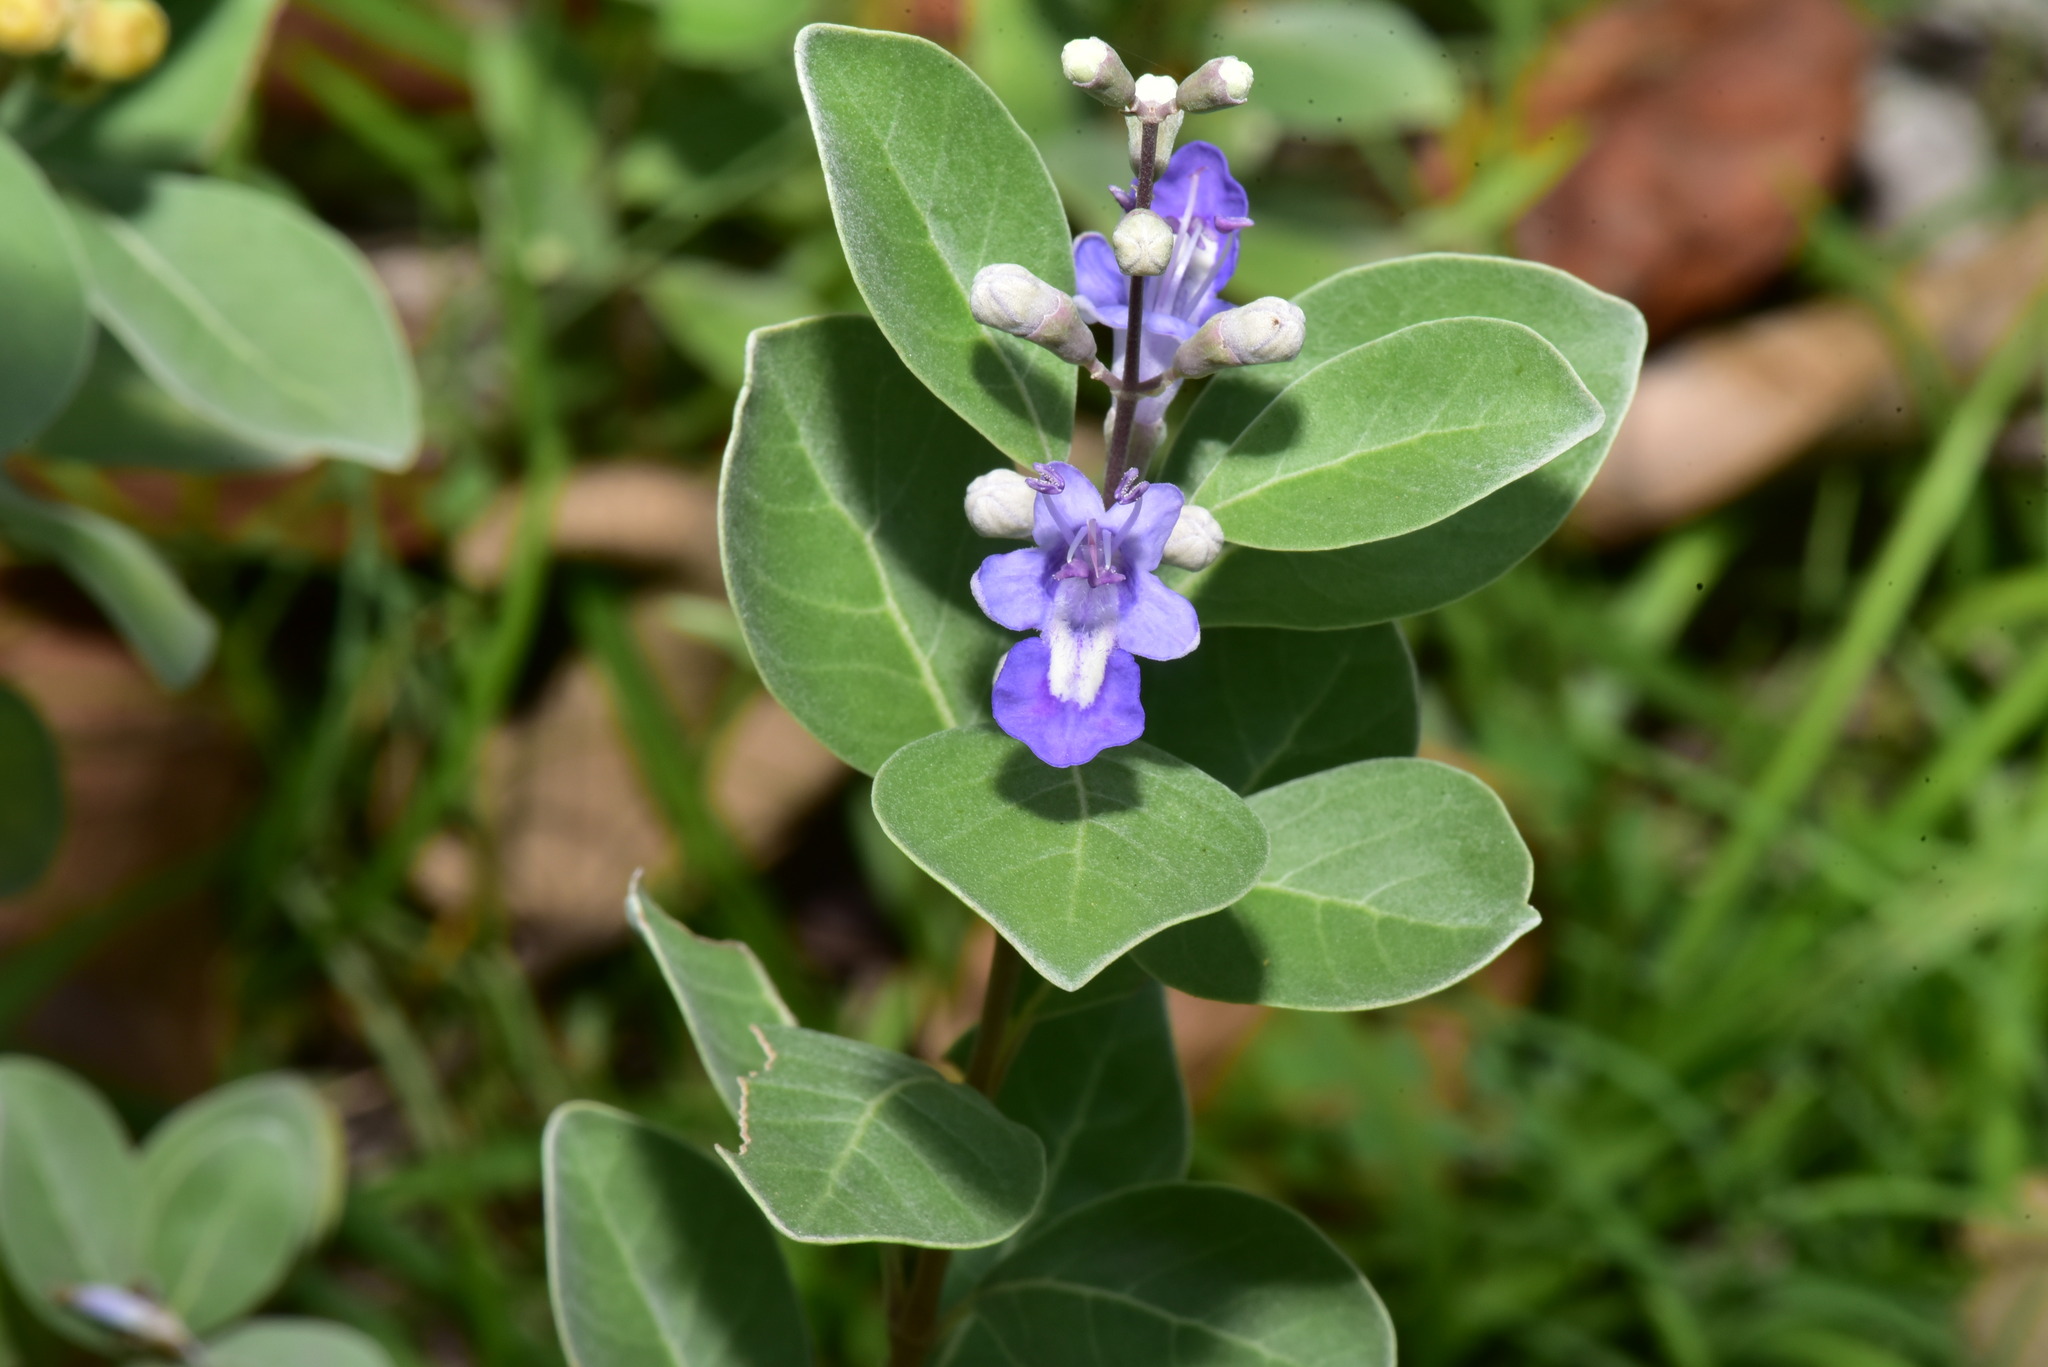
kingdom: Plantae
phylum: Tracheophyta
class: Magnoliopsida
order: Lamiales
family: Lamiaceae
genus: Vitex
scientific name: Vitex rotundifolia
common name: Beach vitex
